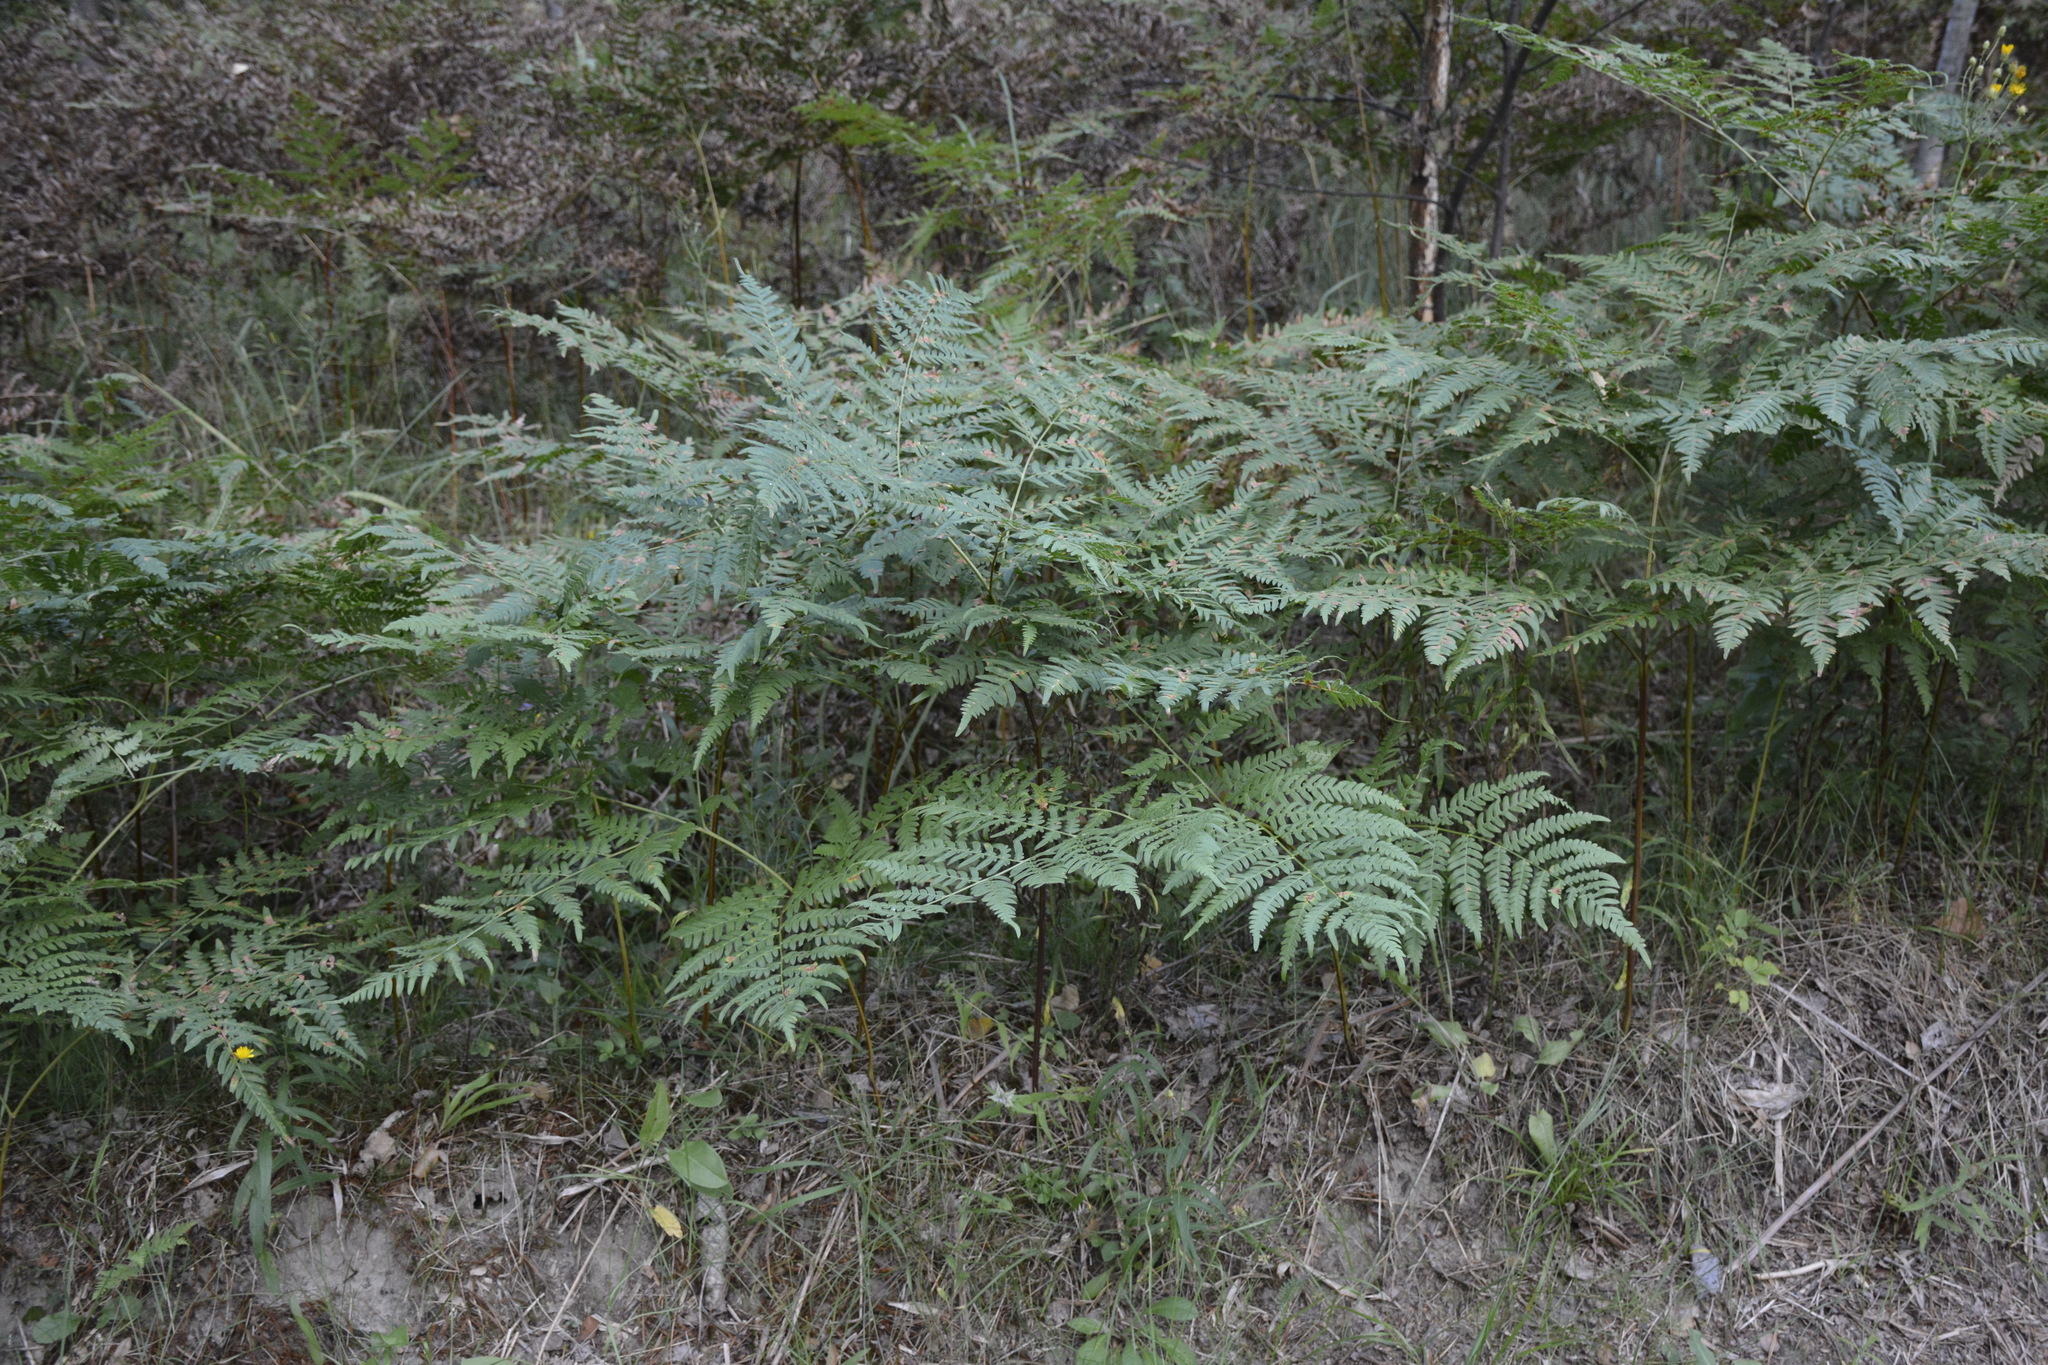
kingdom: Plantae
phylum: Tracheophyta
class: Polypodiopsida
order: Polypodiales
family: Dennstaedtiaceae
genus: Pteridium
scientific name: Pteridium aquilinum
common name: Bracken
